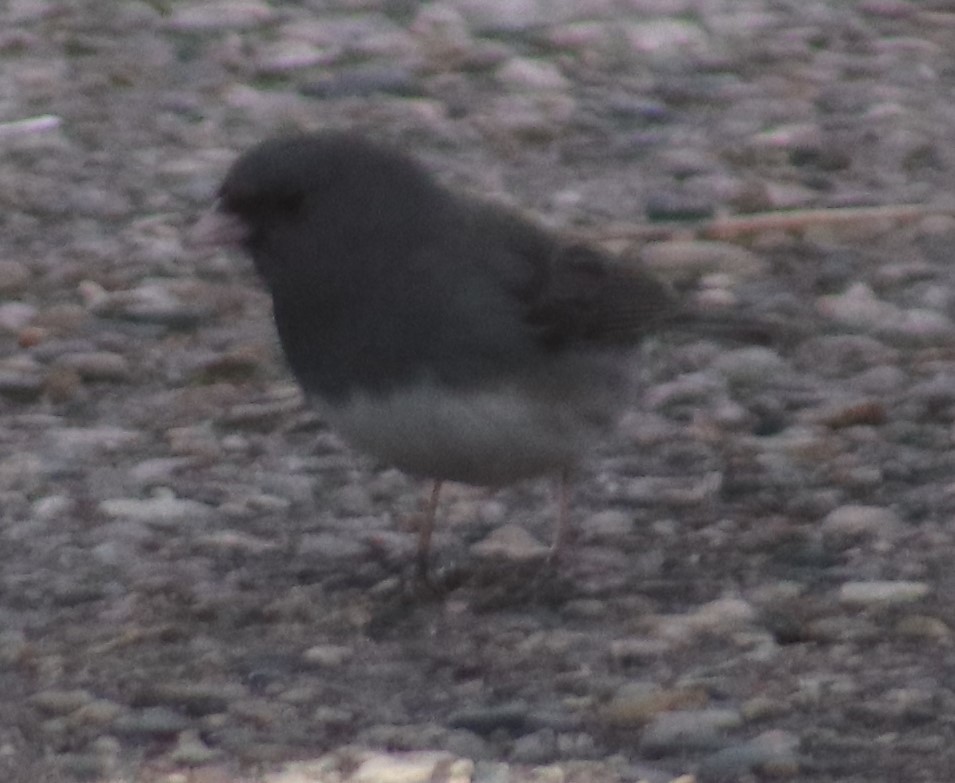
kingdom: Animalia
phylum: Chordata
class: Aves
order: Passeriformes
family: Passerellidae
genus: Junco
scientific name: Junco hyemalis
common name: Dark-eyed junco
